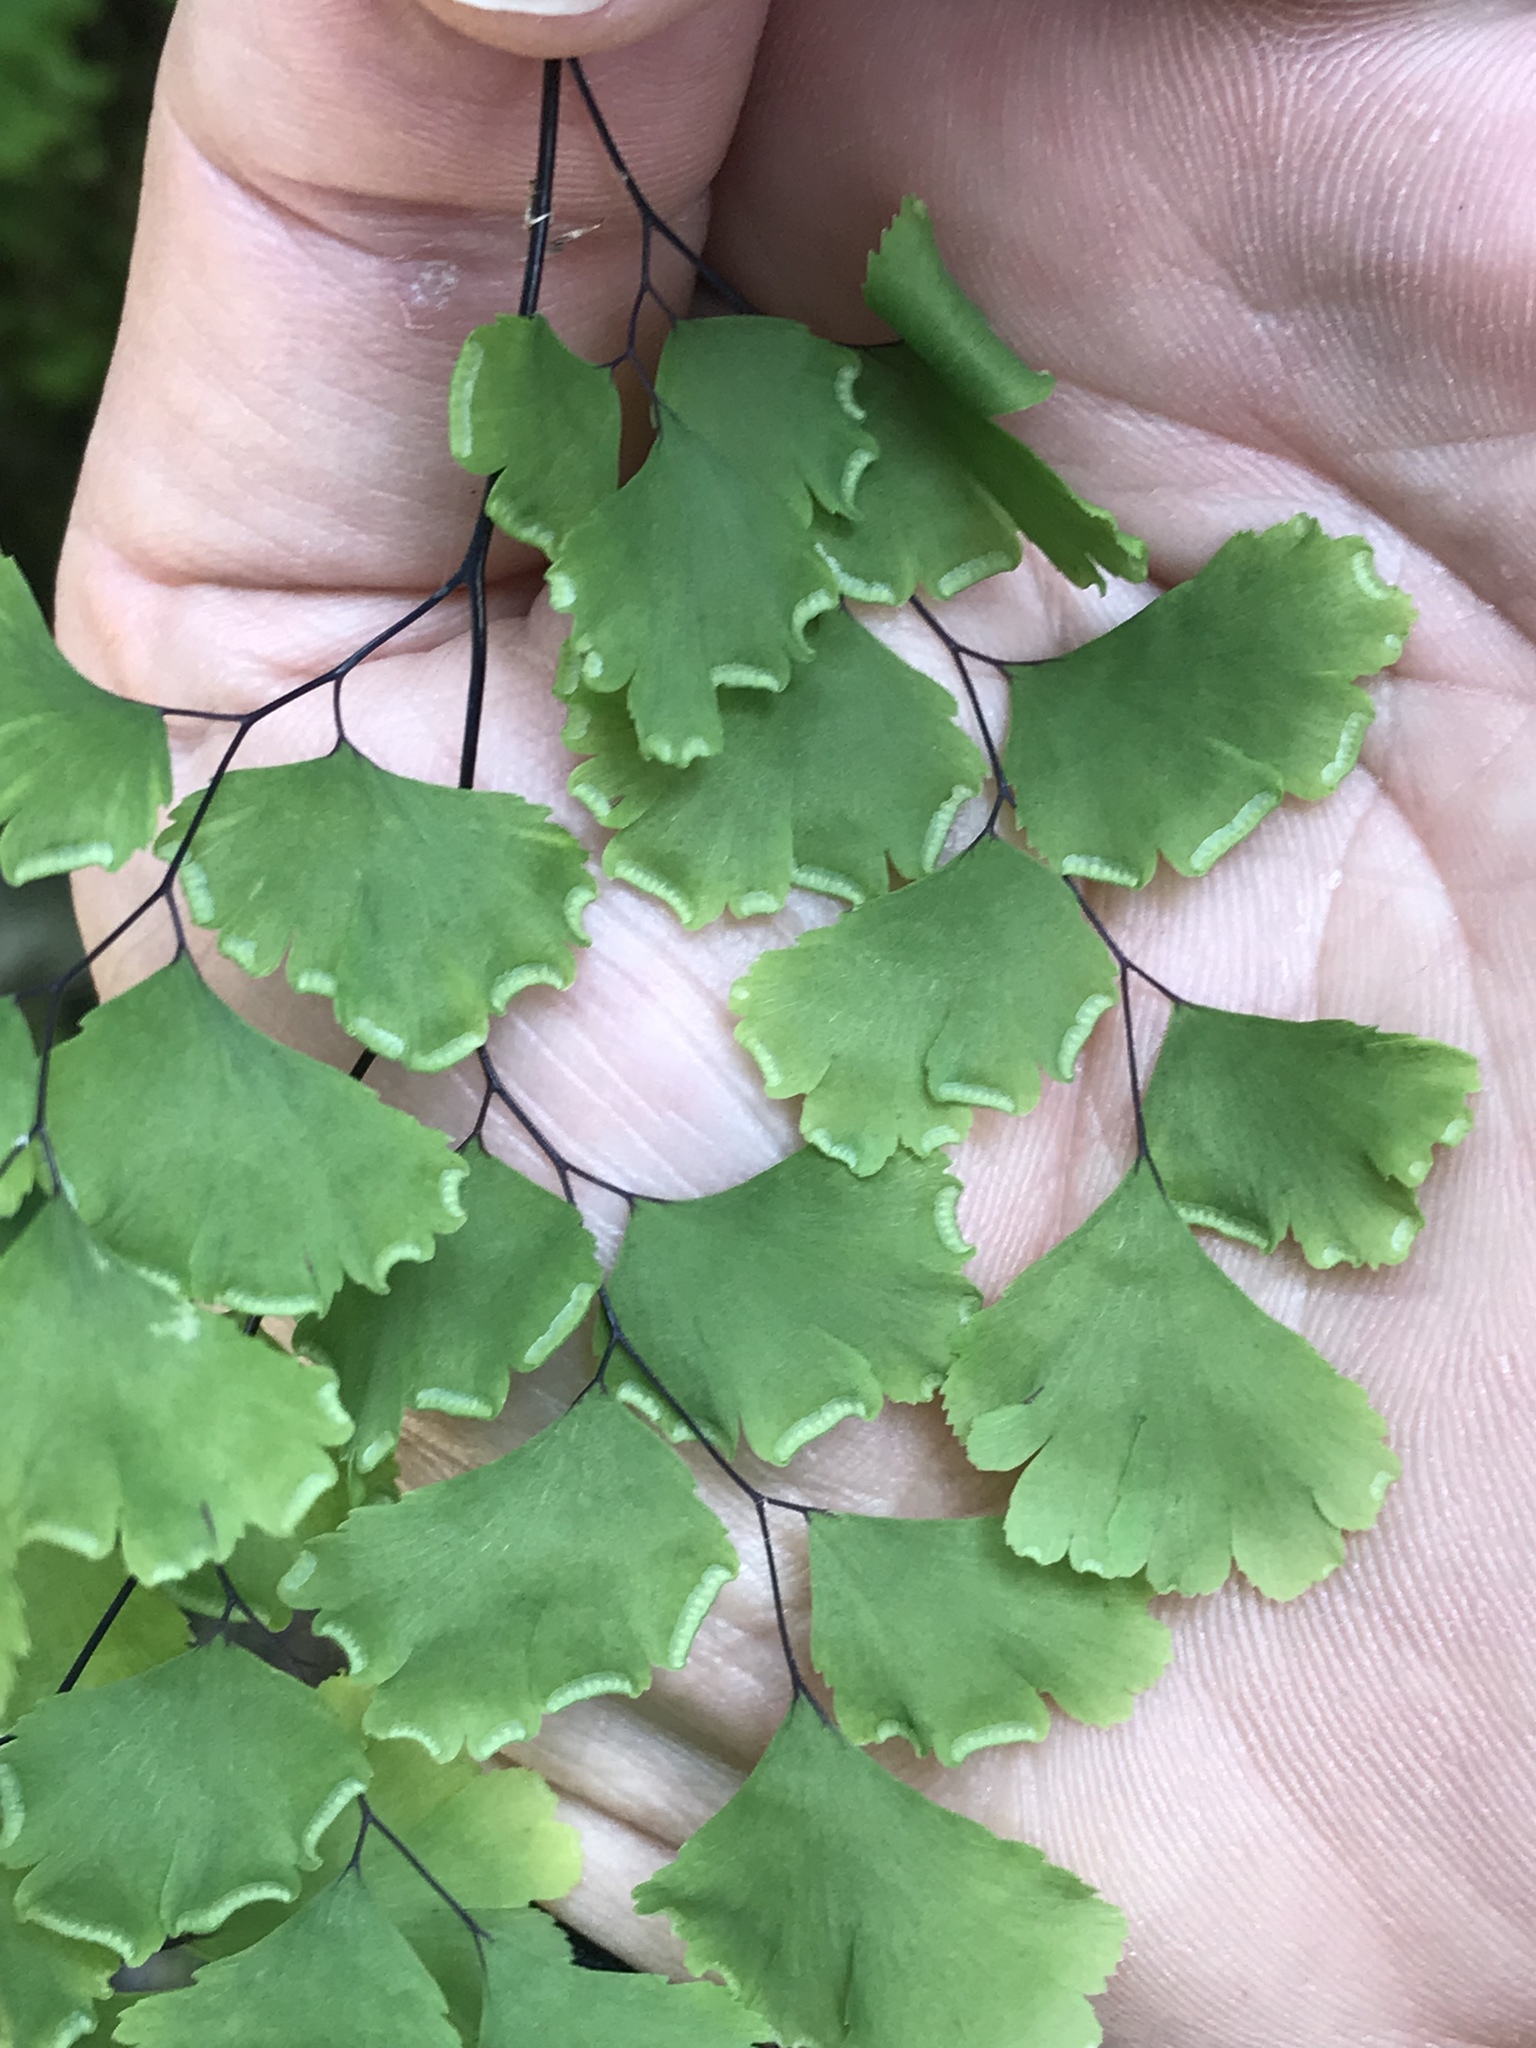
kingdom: Plantae
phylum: Tracheophyta
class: Polypodiopsida
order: Polypodiales
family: Pteridaceae
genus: Adiantum
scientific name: Adiantum capillus-veneris
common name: Maidenhair fern
